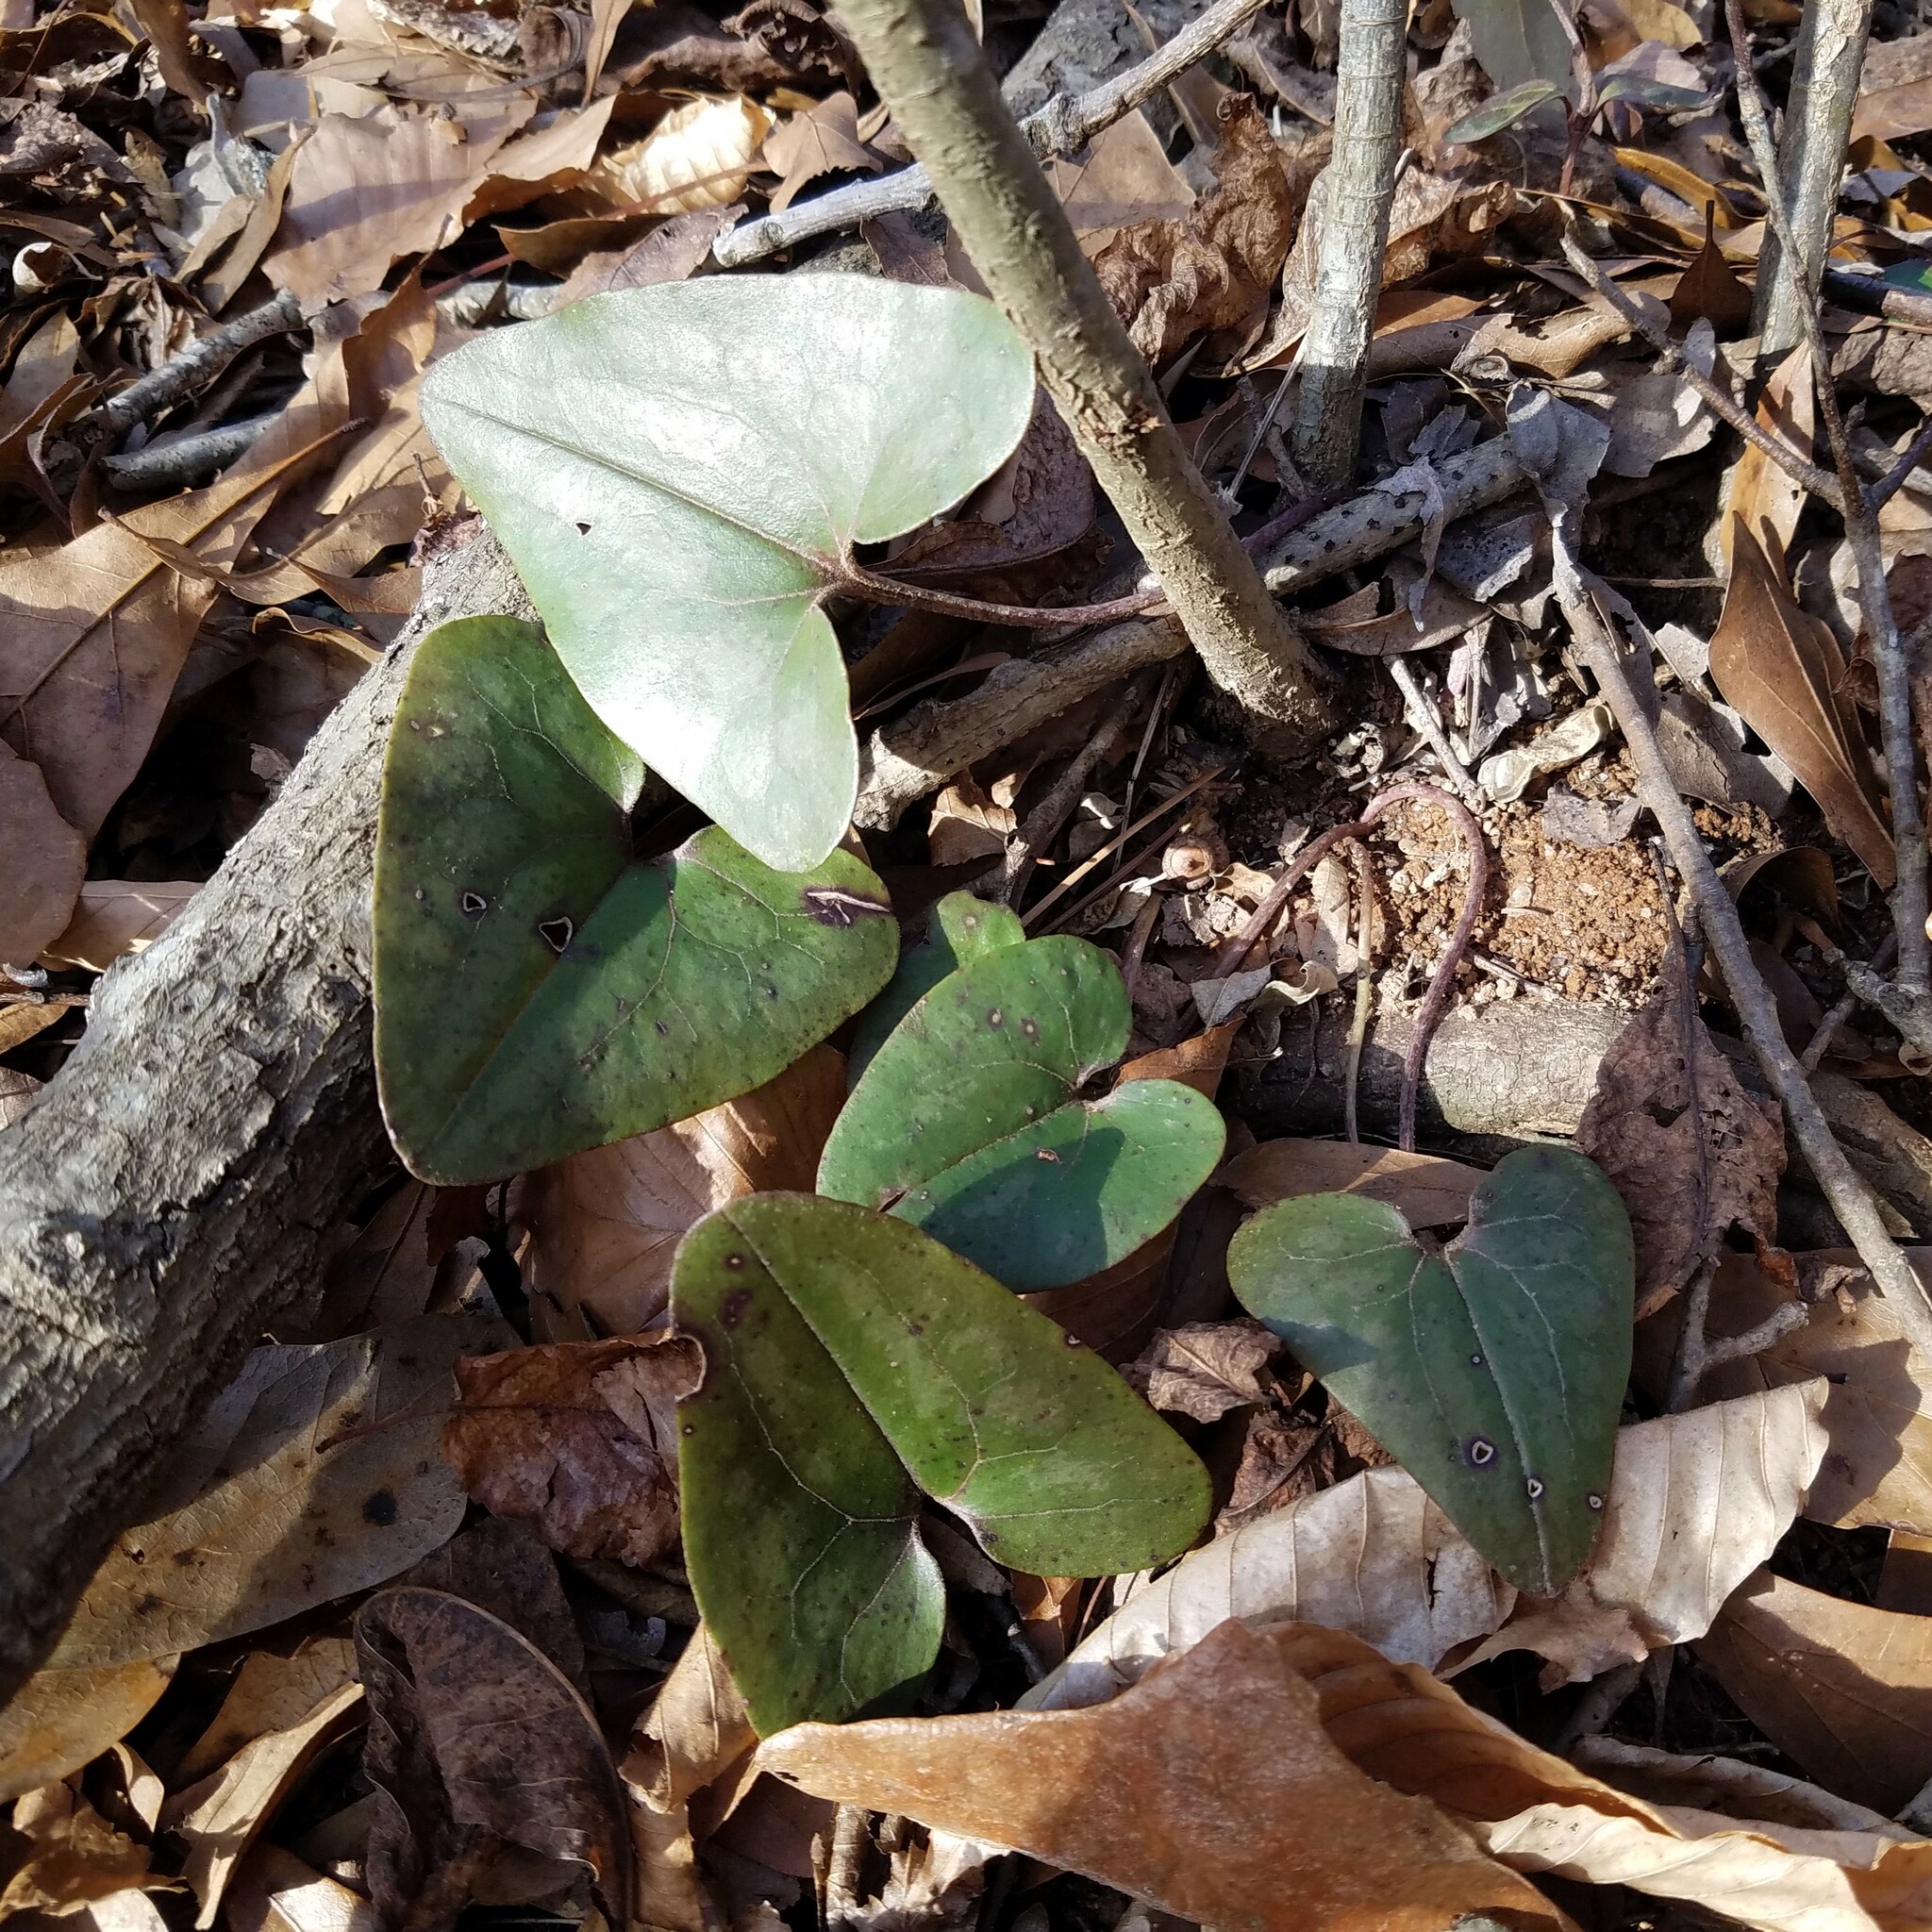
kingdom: Plantae
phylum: Tracheophyta
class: Magnoliopsida
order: Piperales
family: Aristolochiaceae
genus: Hexastylis
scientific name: Hexastylis arifolia
